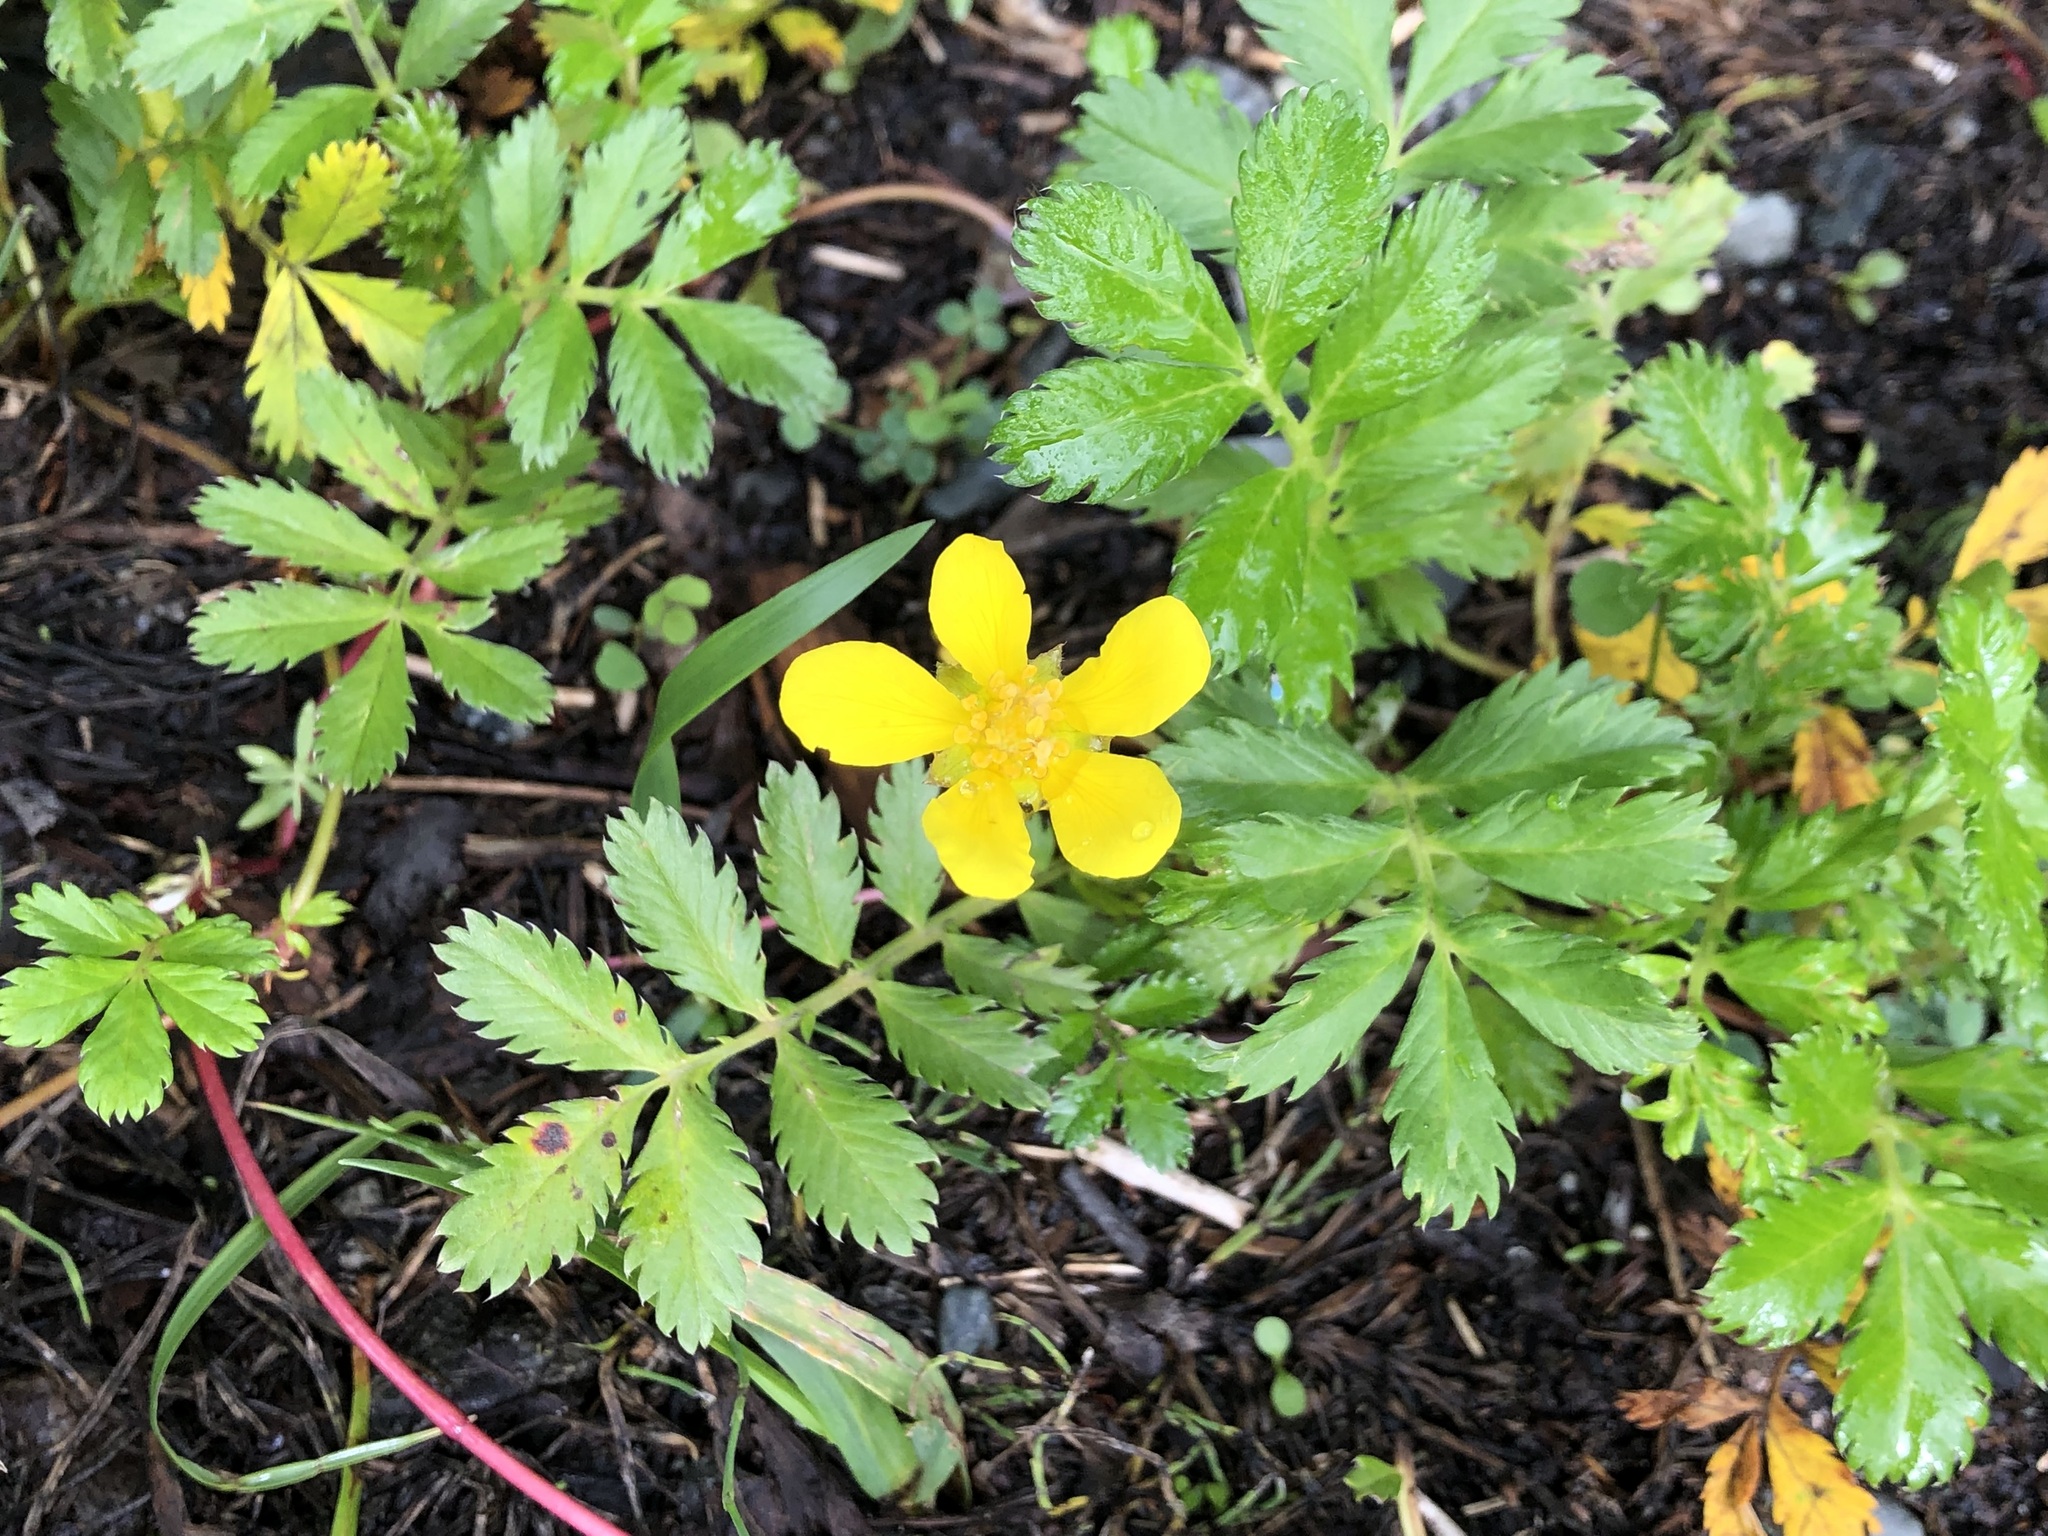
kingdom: Plantae
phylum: Tracheophyta
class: Magnoliopsida
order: Rosales
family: Rosaceae
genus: Argentina
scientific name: Argentina anserina
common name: Common silverweed
